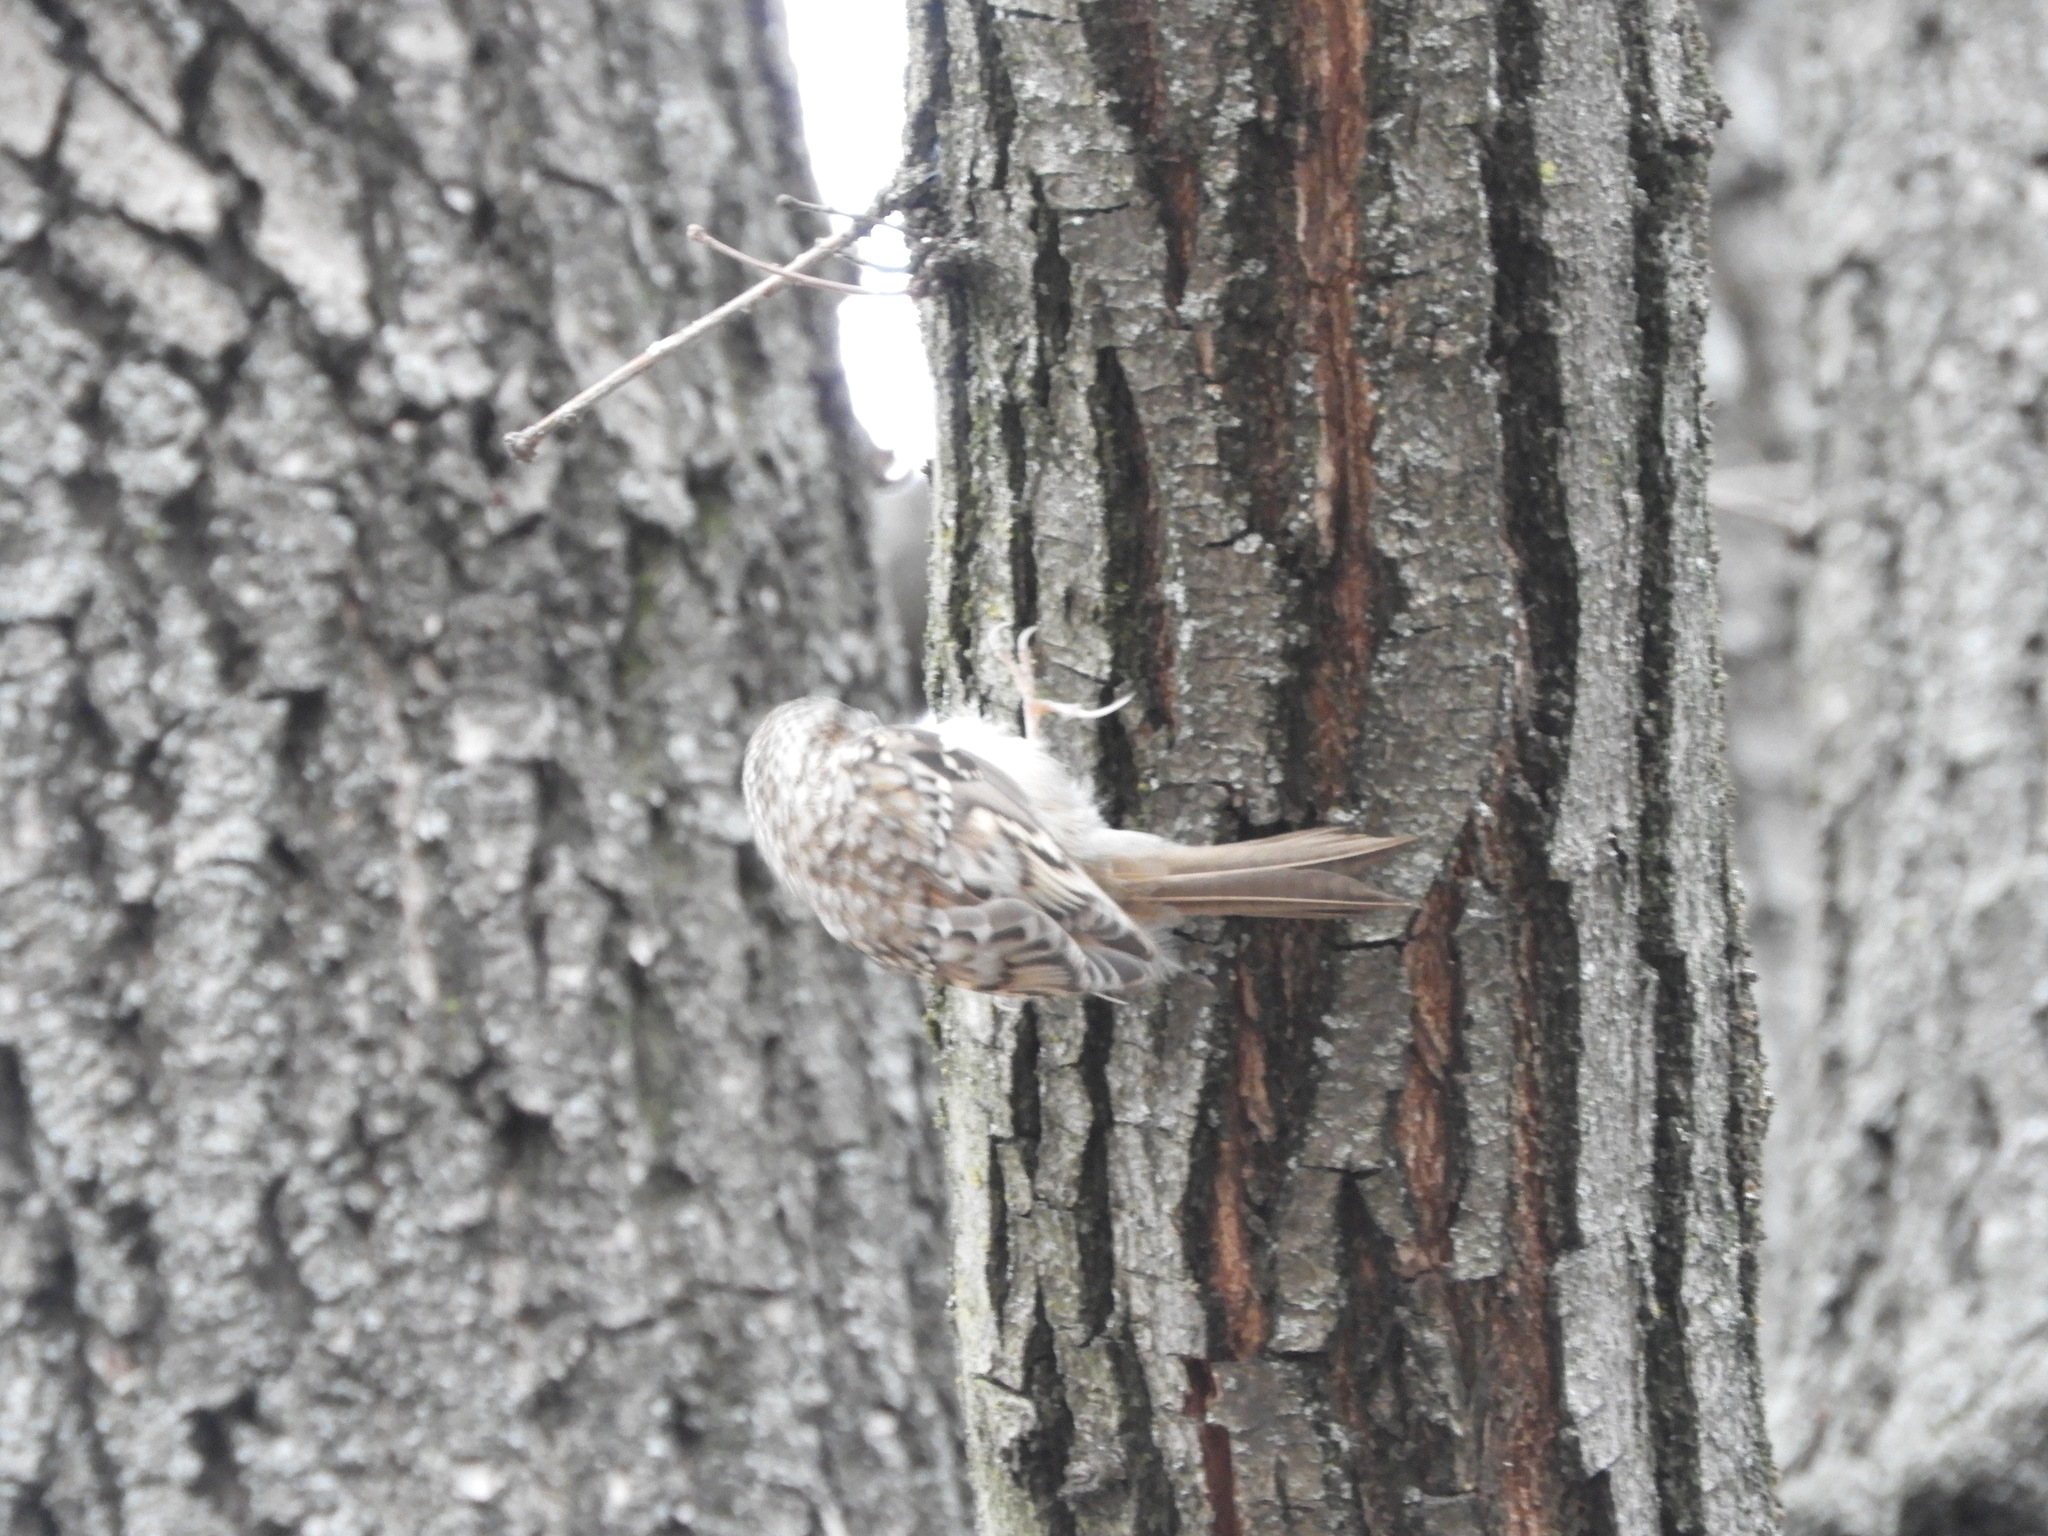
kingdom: Animalia
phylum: Chordata
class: Aves
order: Passeriformes
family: Certhiidae
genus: Certhia
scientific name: Certhia familiaris
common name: Eurasian treecreeper
